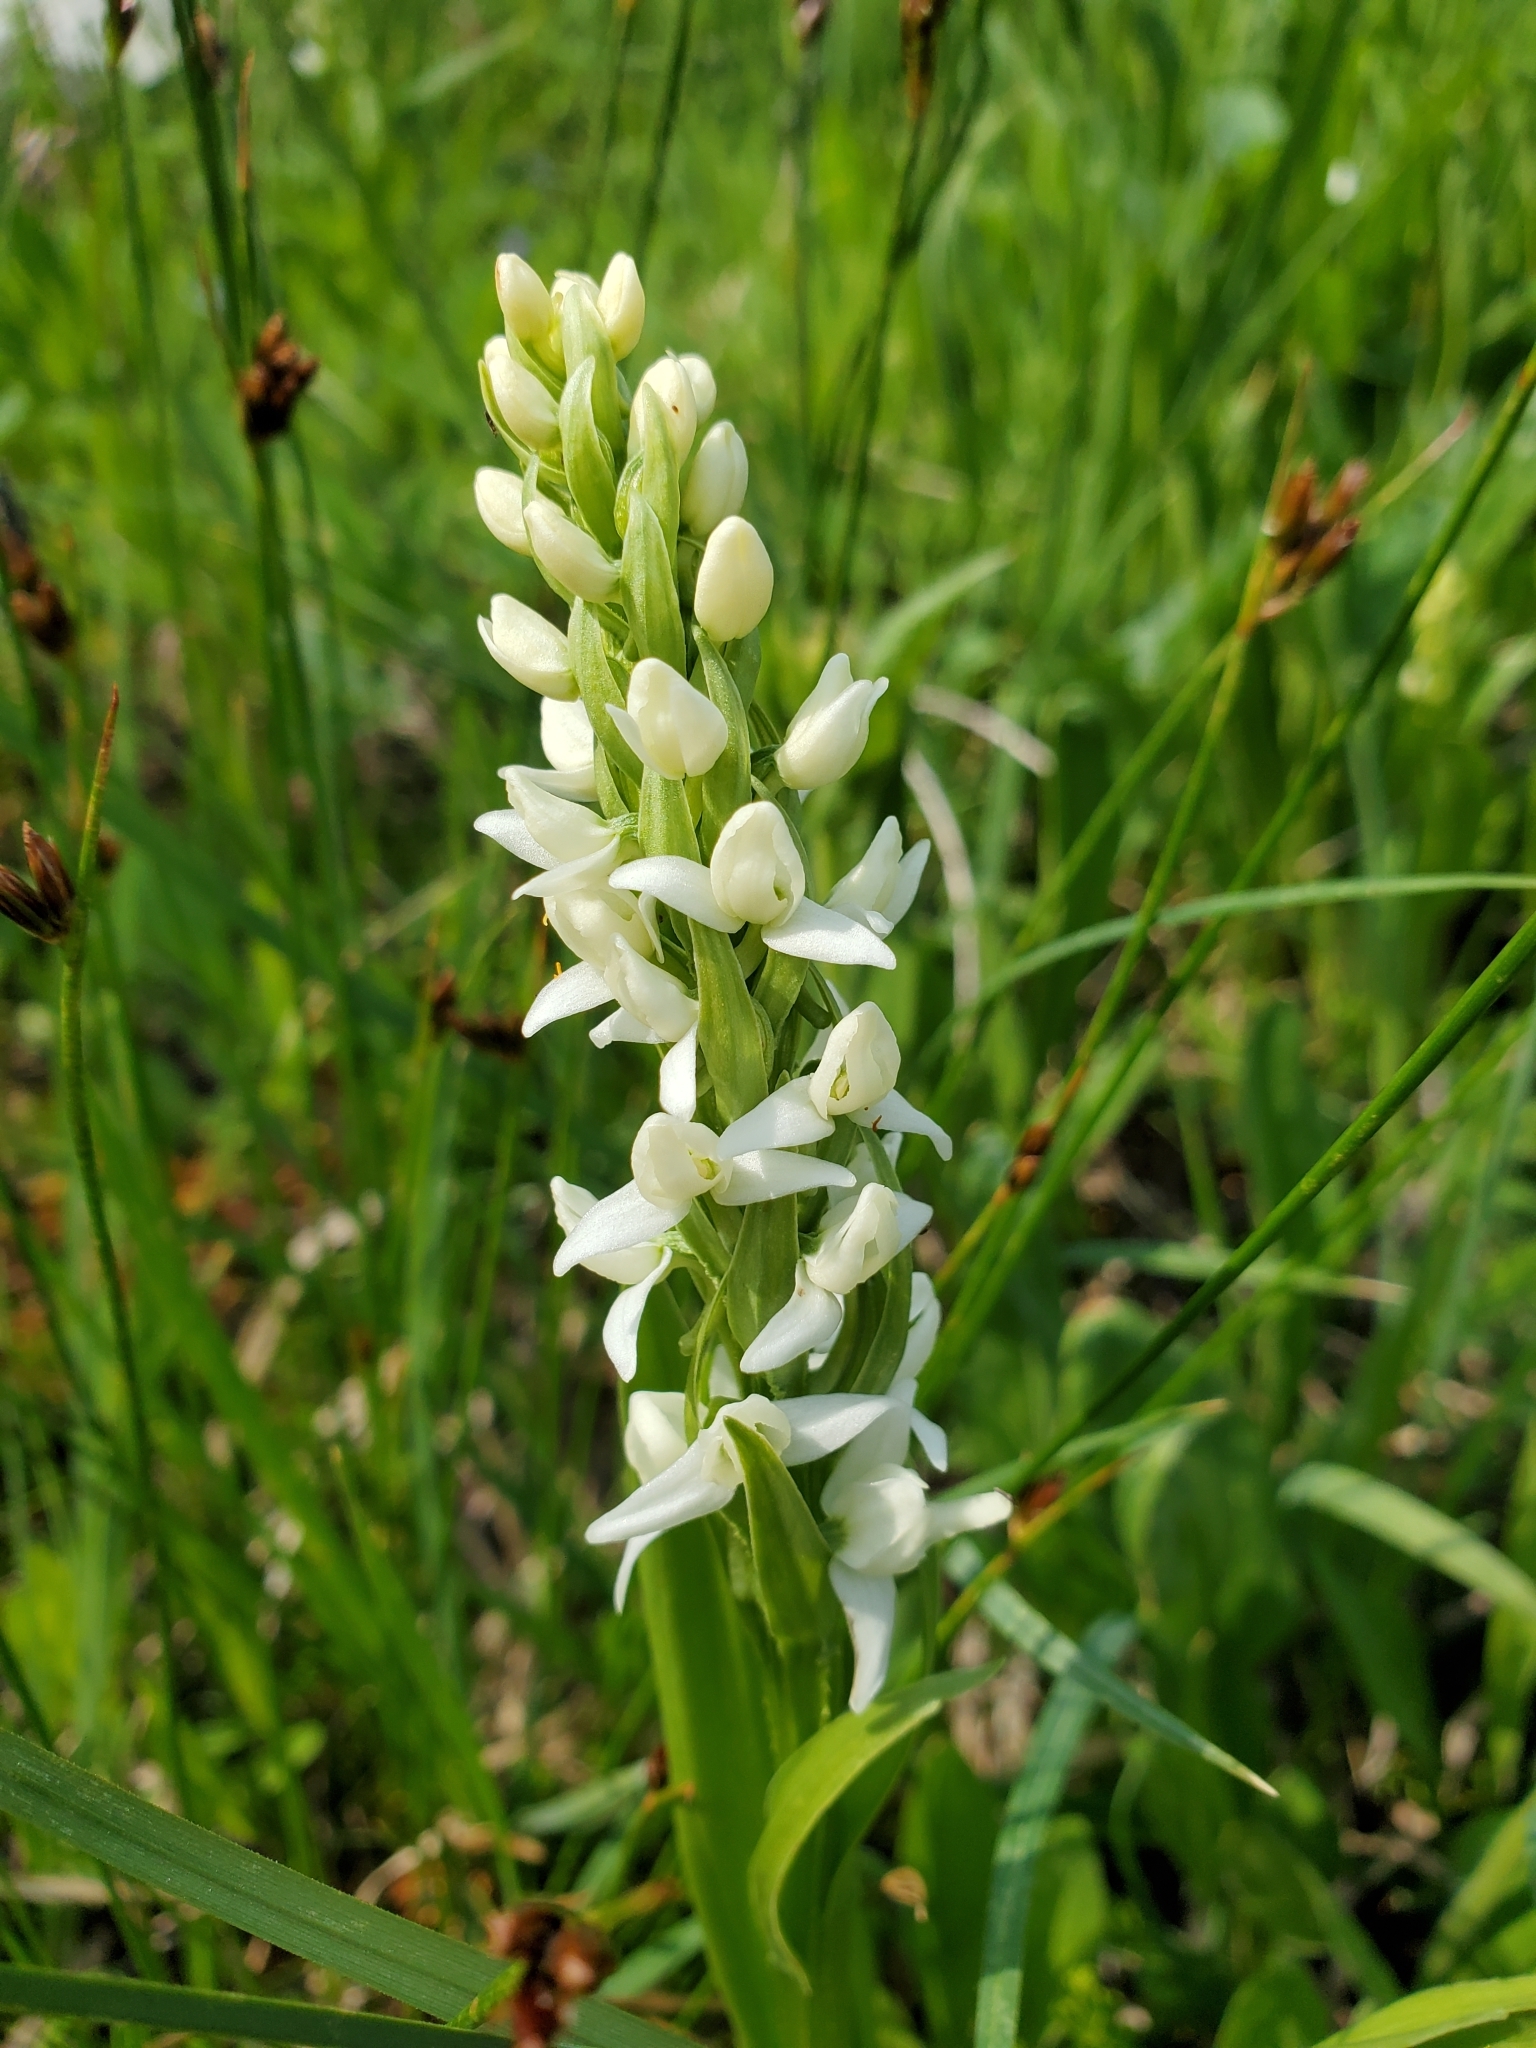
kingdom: Plantae
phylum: Tracheophyta
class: Liliopsida
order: Asparagales
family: Orchidaceae
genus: Platanthera
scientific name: Platanthera dilatata
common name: Bog candles
